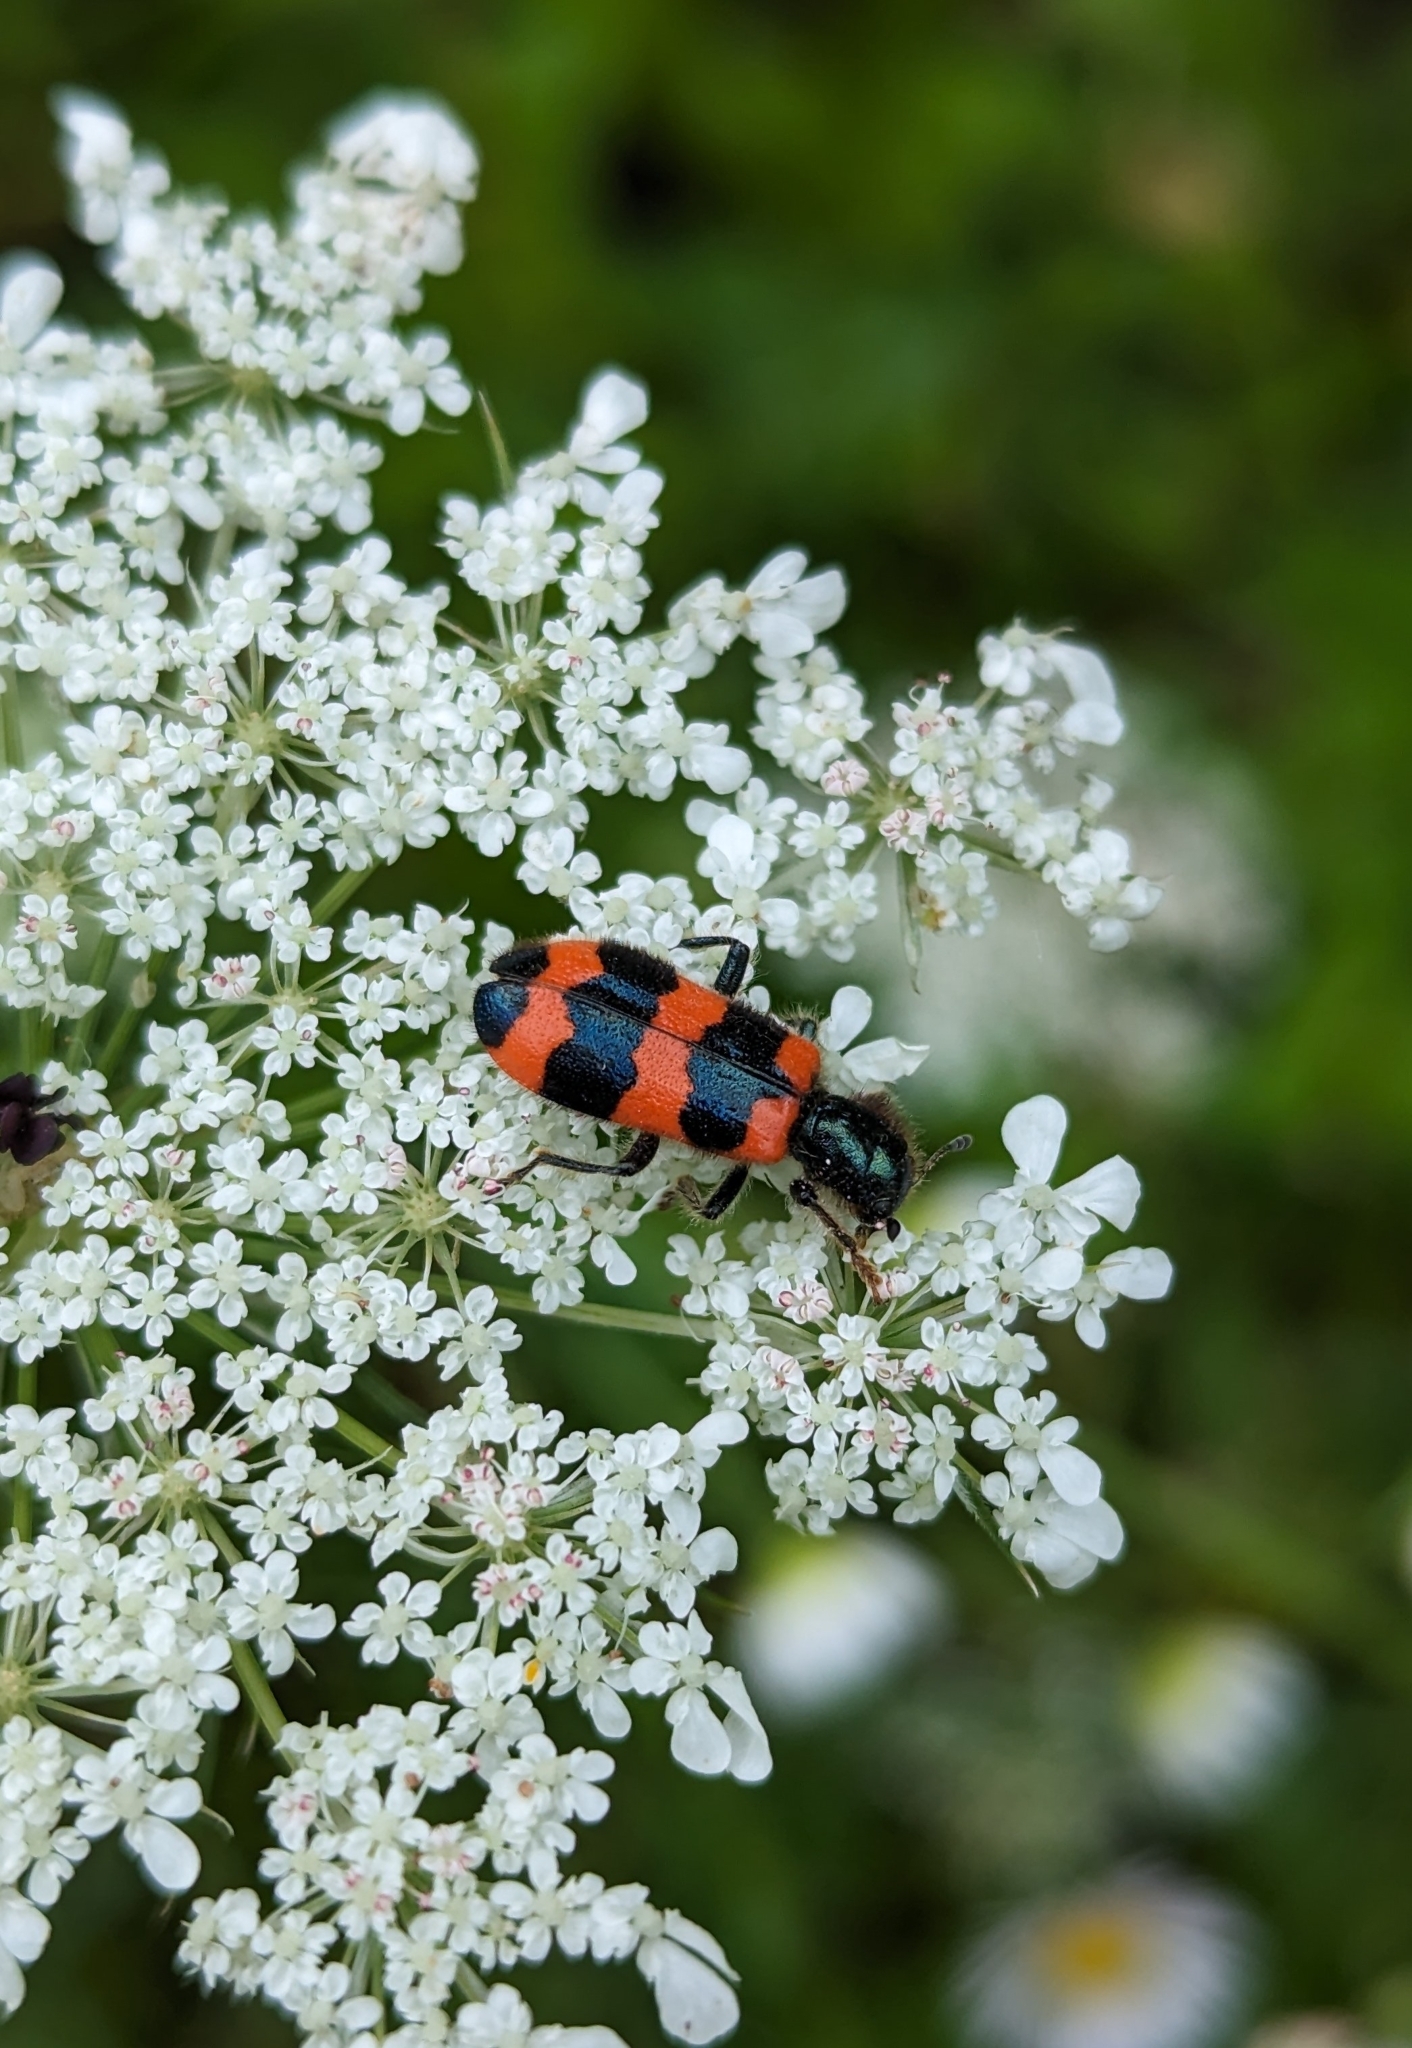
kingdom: Animalia
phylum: Arthropoda
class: Insecta
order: Coleoptera
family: Cleridae
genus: Trichodes
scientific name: Trichodes apiarius
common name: Bee-eating beetle
